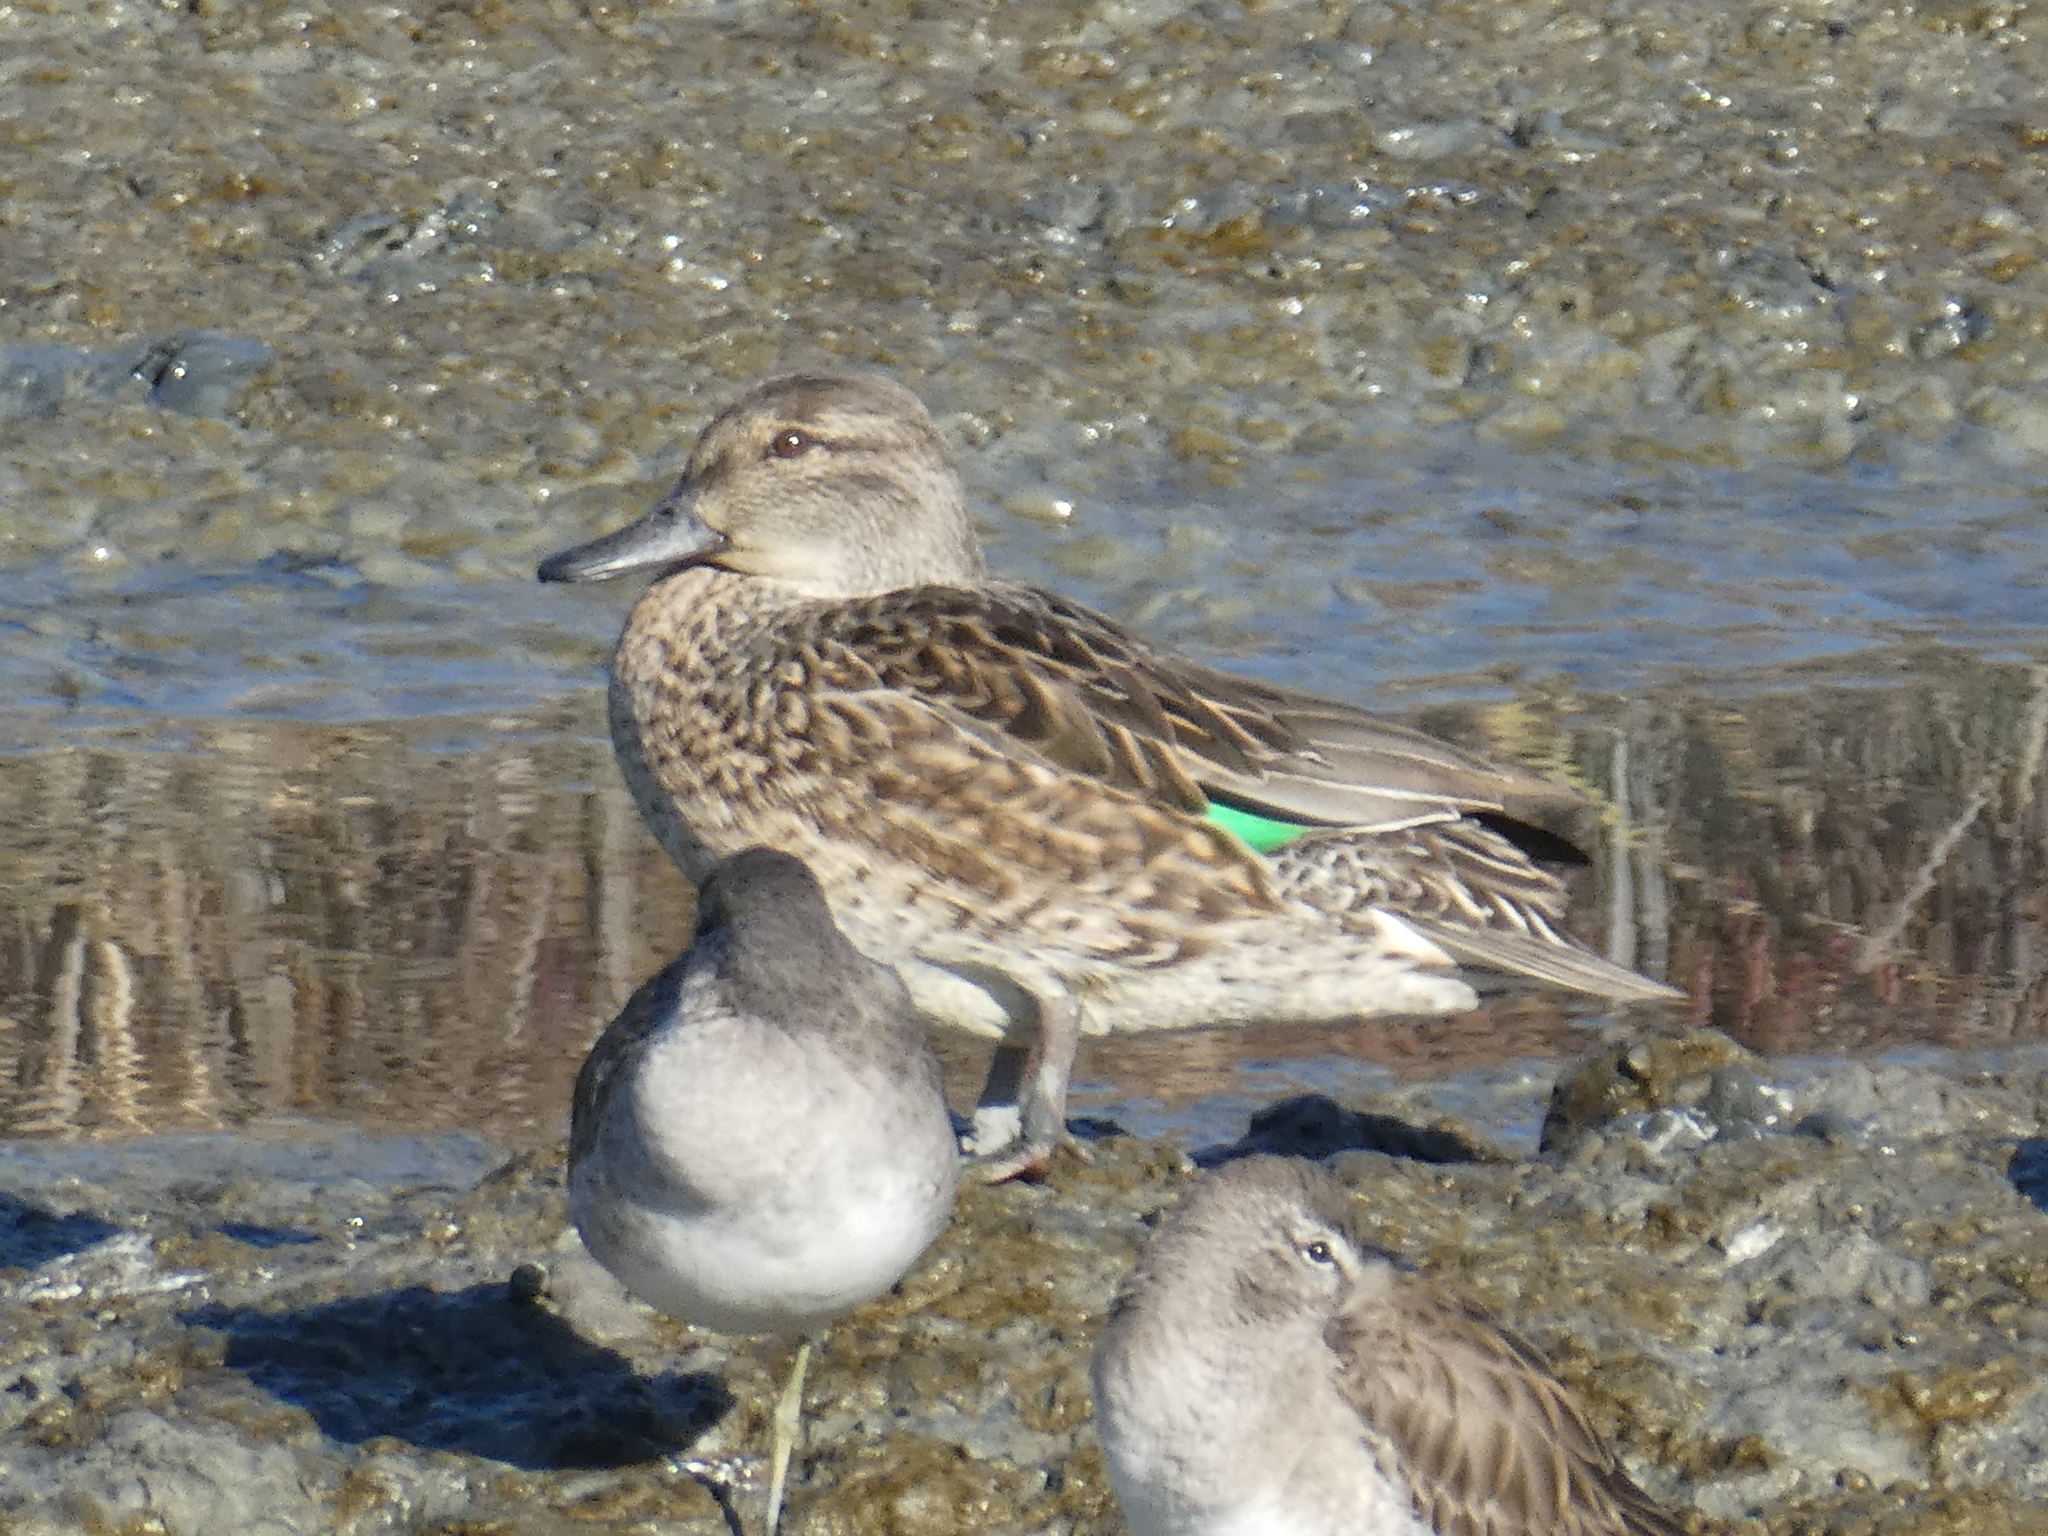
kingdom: Animalia
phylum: Chordata
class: Aves
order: Anseriformes
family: Anatidae
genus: Anas
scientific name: Anas crecca
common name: Eurasian teal
